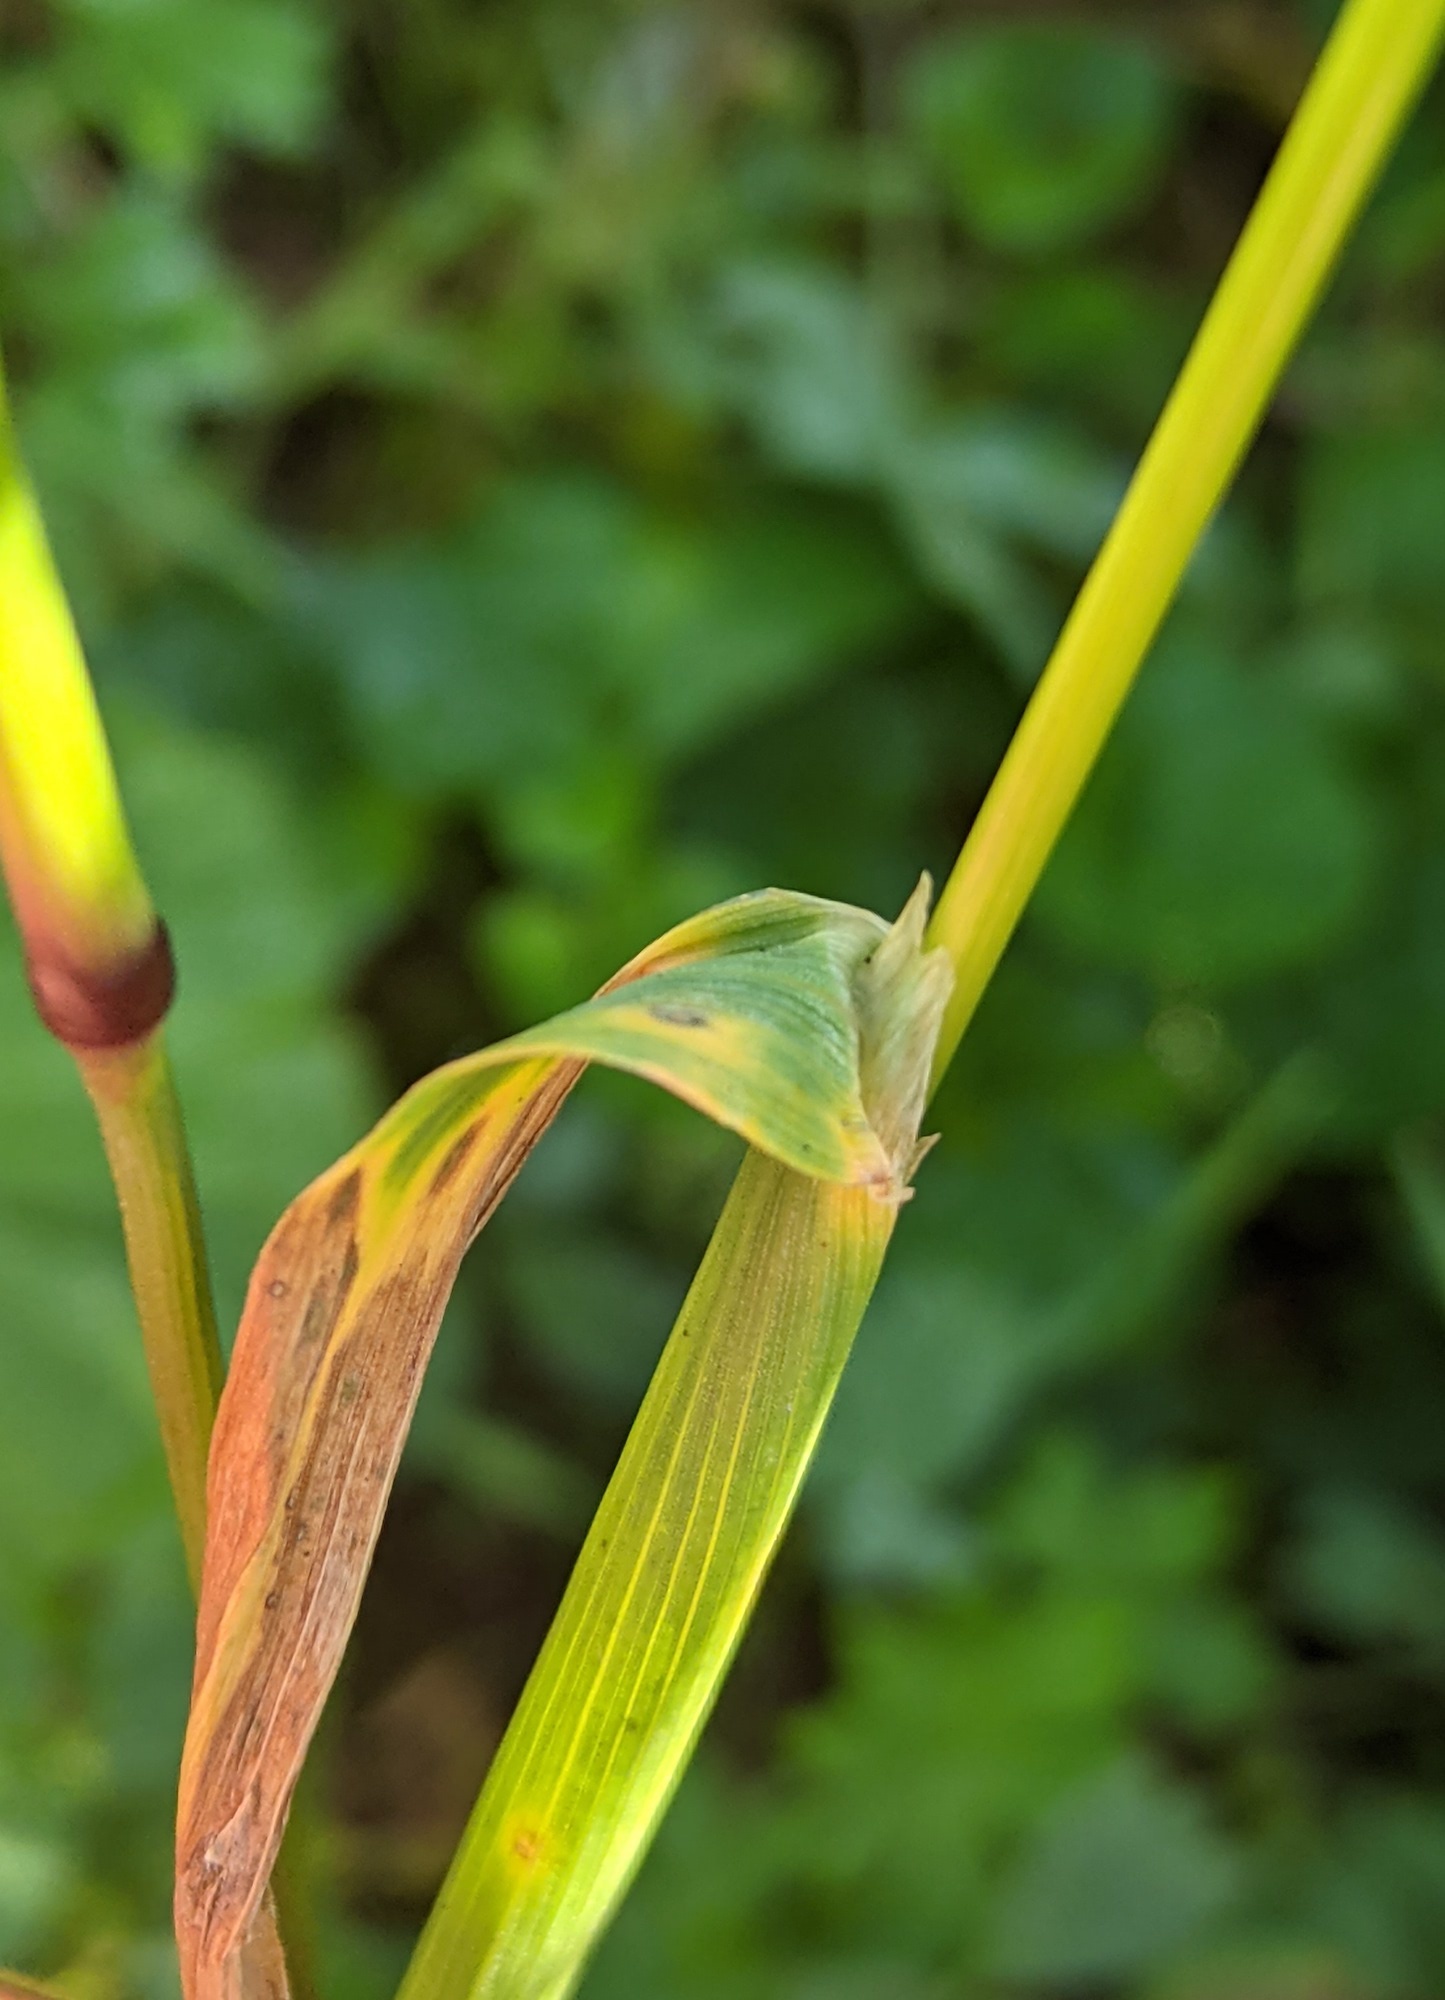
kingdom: Plantae
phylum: Tracheophyta
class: Liliopsida
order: Poales
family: Poaceae
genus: Phleum
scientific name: Phleum alpinum
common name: Alpine cat's-tail
